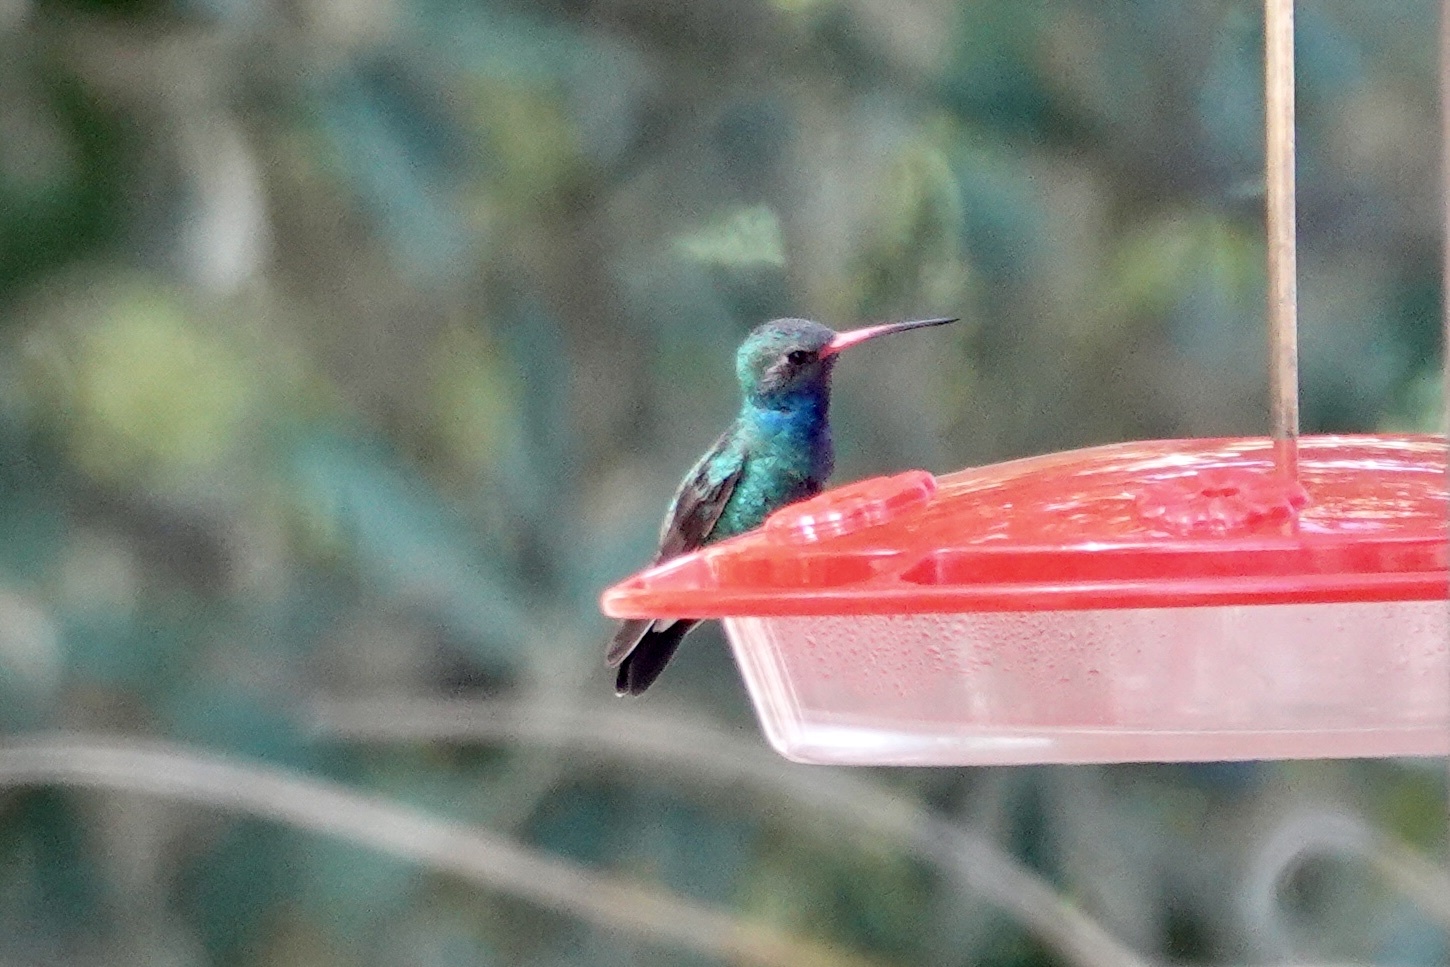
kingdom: Animalia
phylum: Chordata
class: Aves
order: Apodiformes
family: Trochilidae
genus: Cynanthus
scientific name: Cynanthus latirostris
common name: Broad-billed hummingbird
